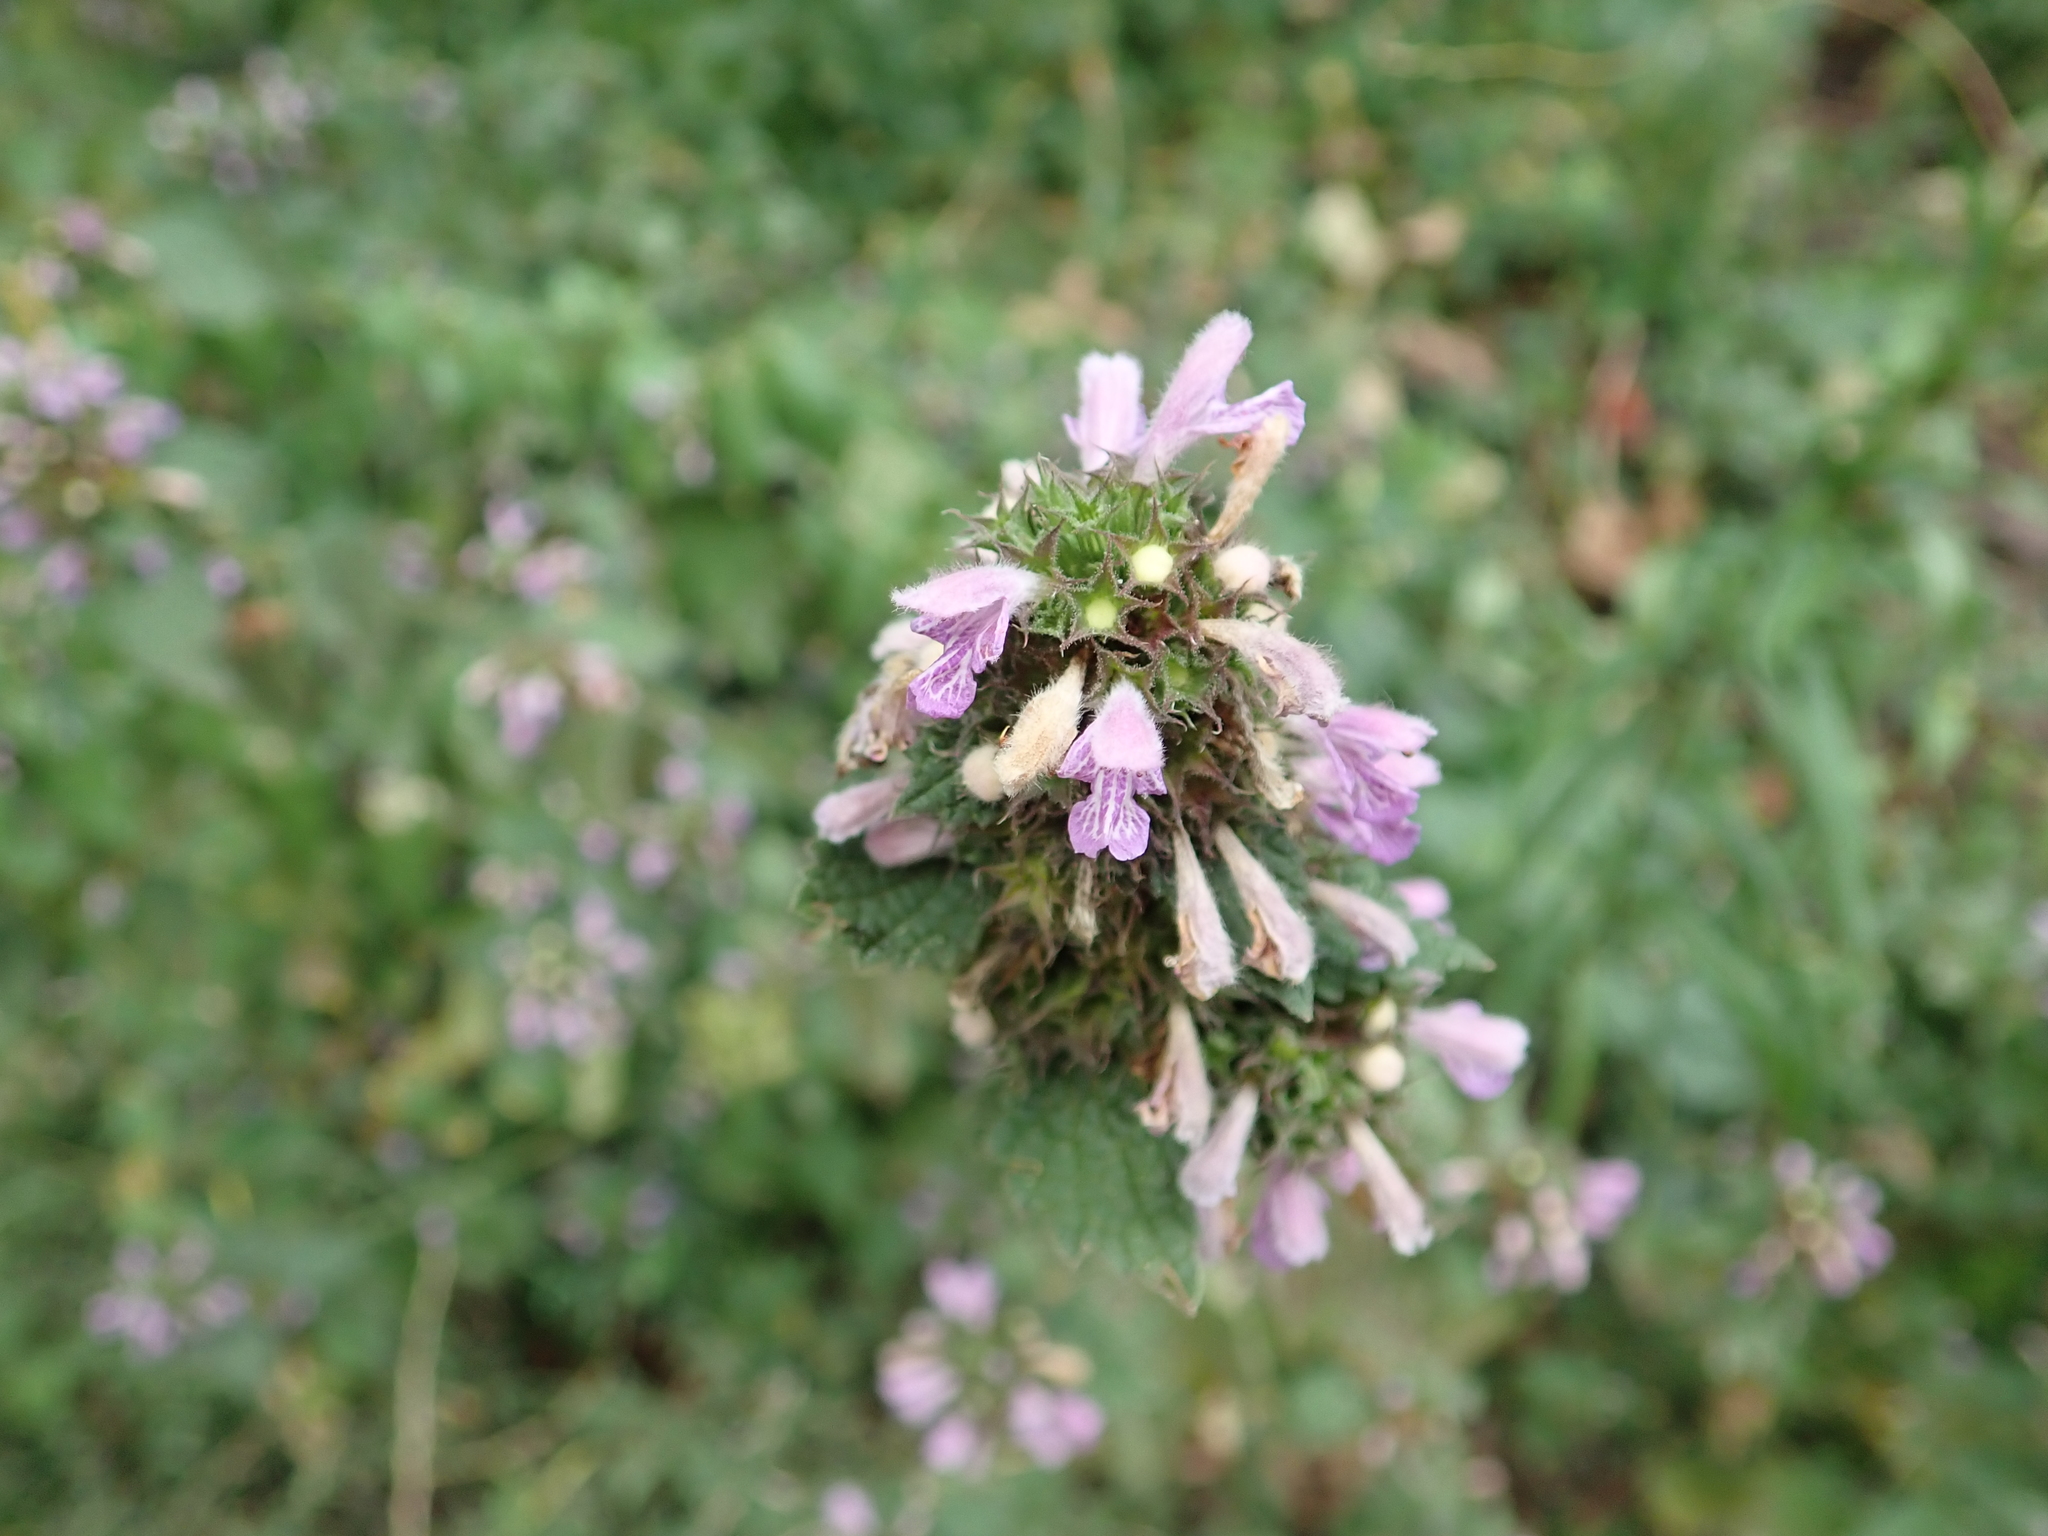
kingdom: Plantae
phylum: Tracheophyta
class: Magnoliopsida
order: Lamiales
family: Lamiaceae
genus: Ballota
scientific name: Ballota nigra
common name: Black horehound
